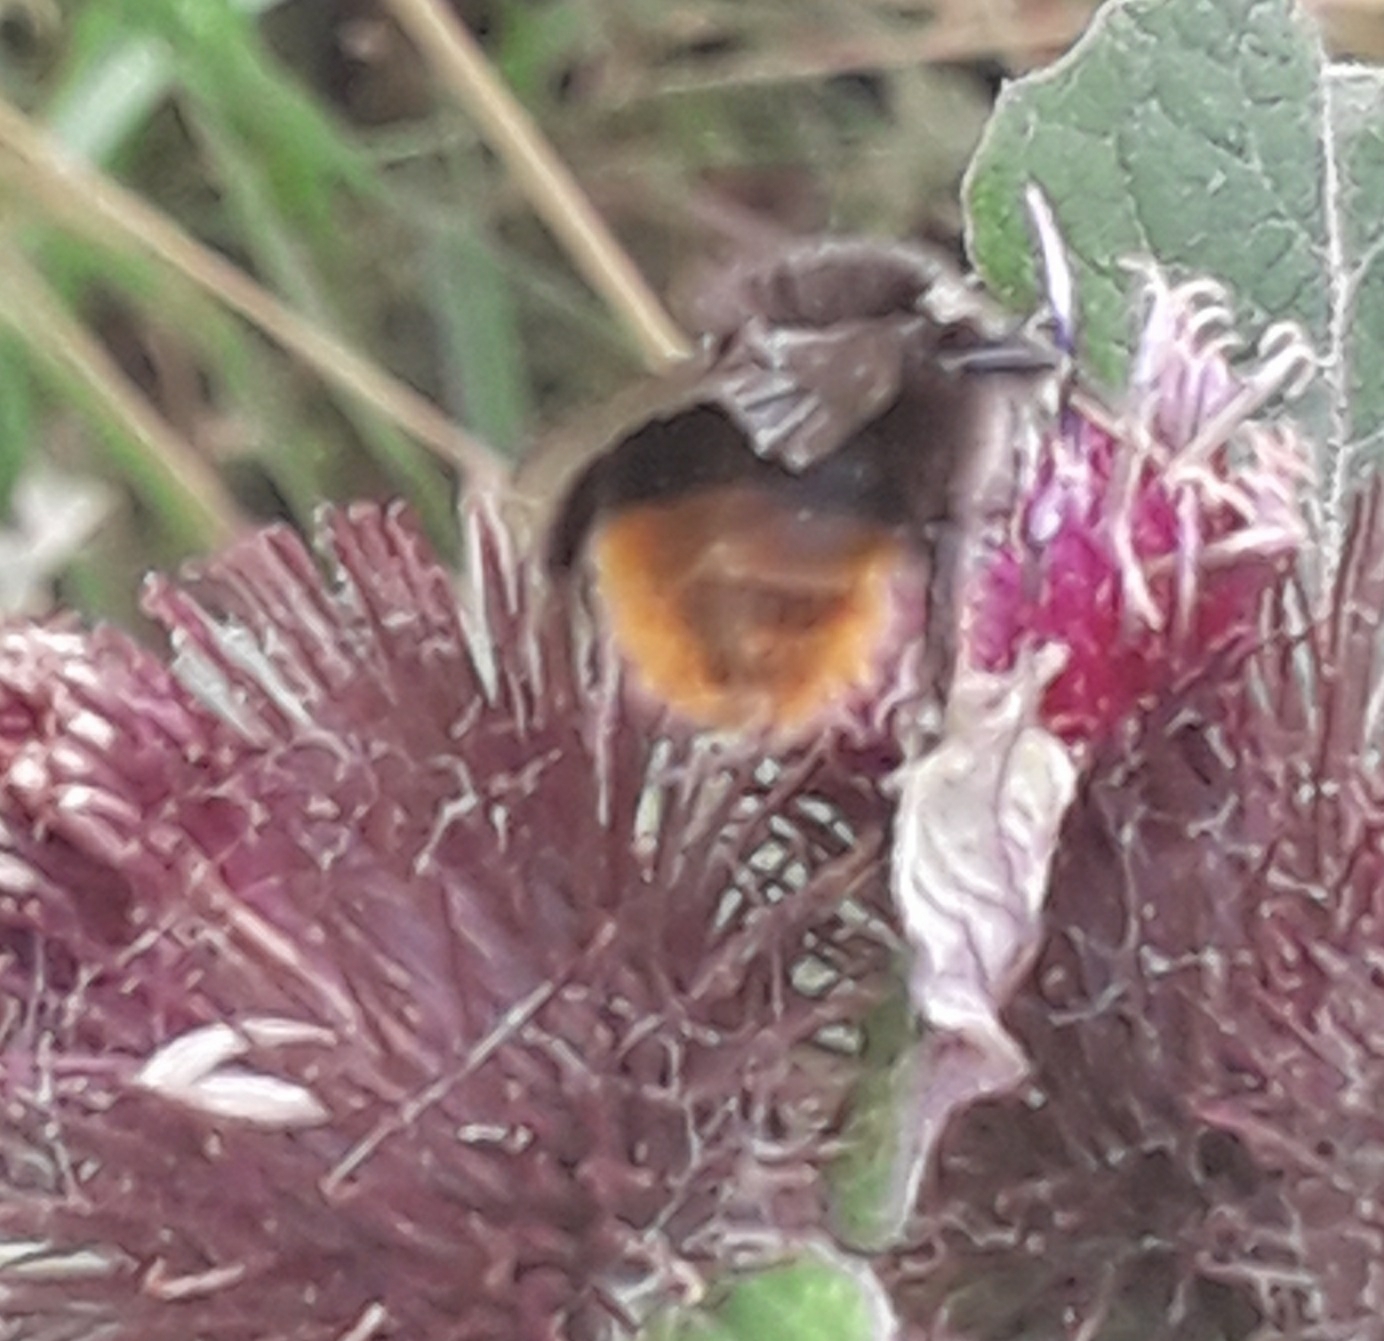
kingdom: Animalia
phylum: Arthropoda
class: Insecta
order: Hymenoptera
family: Apidae
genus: Bombus
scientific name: Bombus lapidarius
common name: Large red-tailed humble-bee
